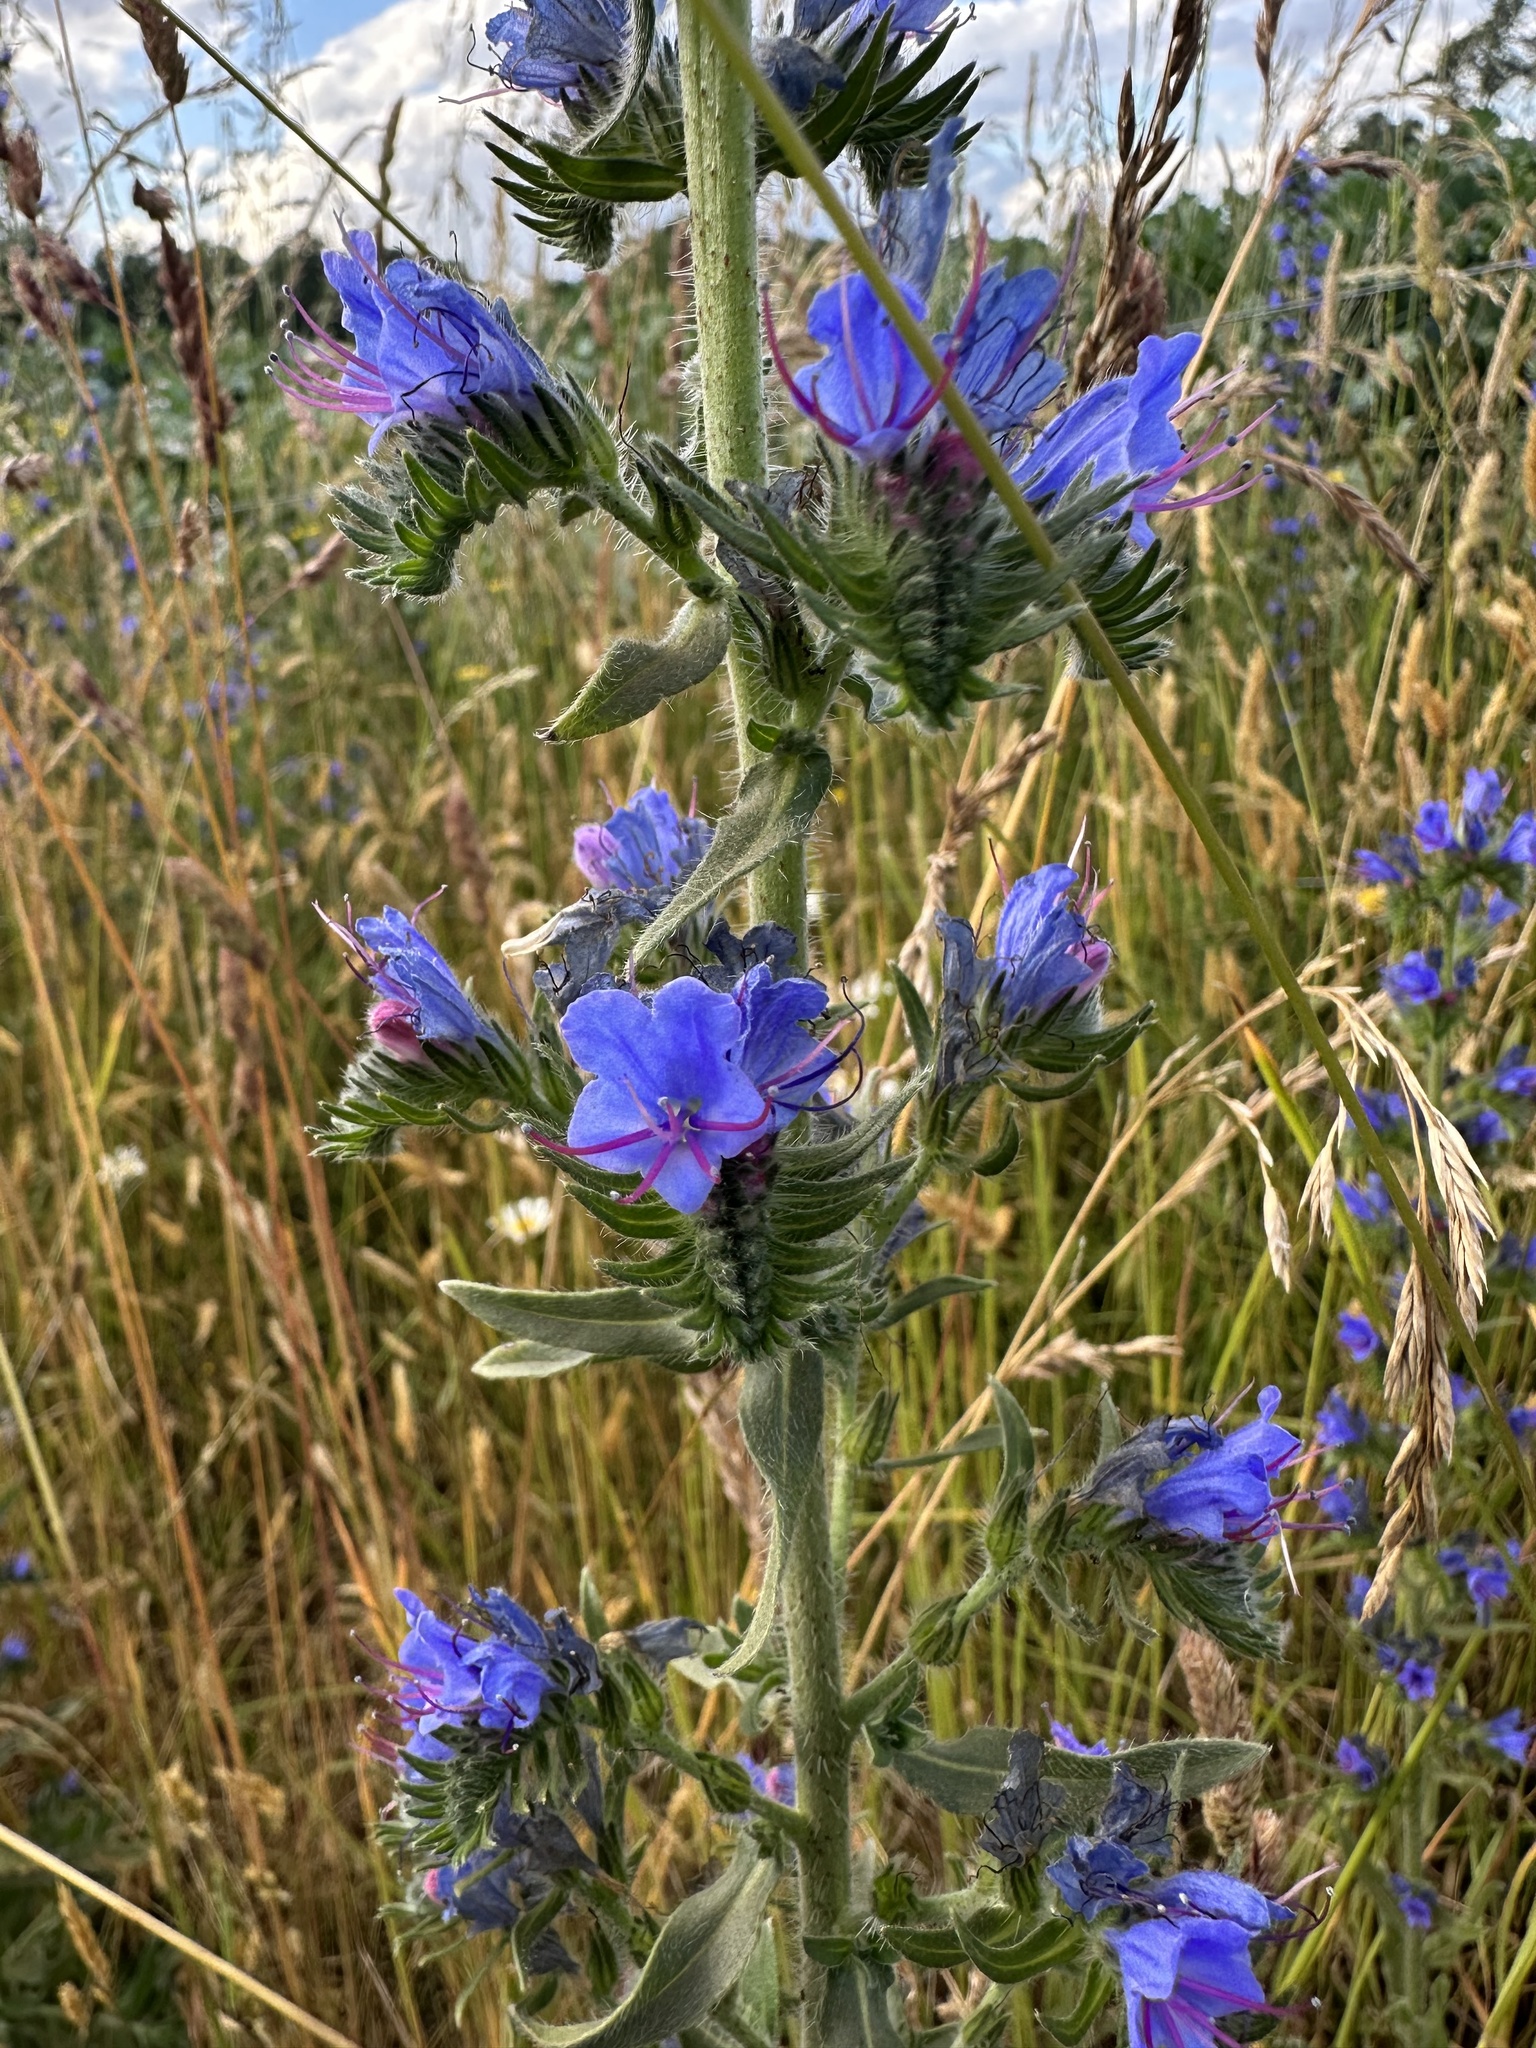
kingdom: Plantae
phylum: Tracheophyta
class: Magnoliopsida
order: Boraginales
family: Boraginaceae
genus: Echium
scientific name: Echium vulgare
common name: Common viper's bugloss
